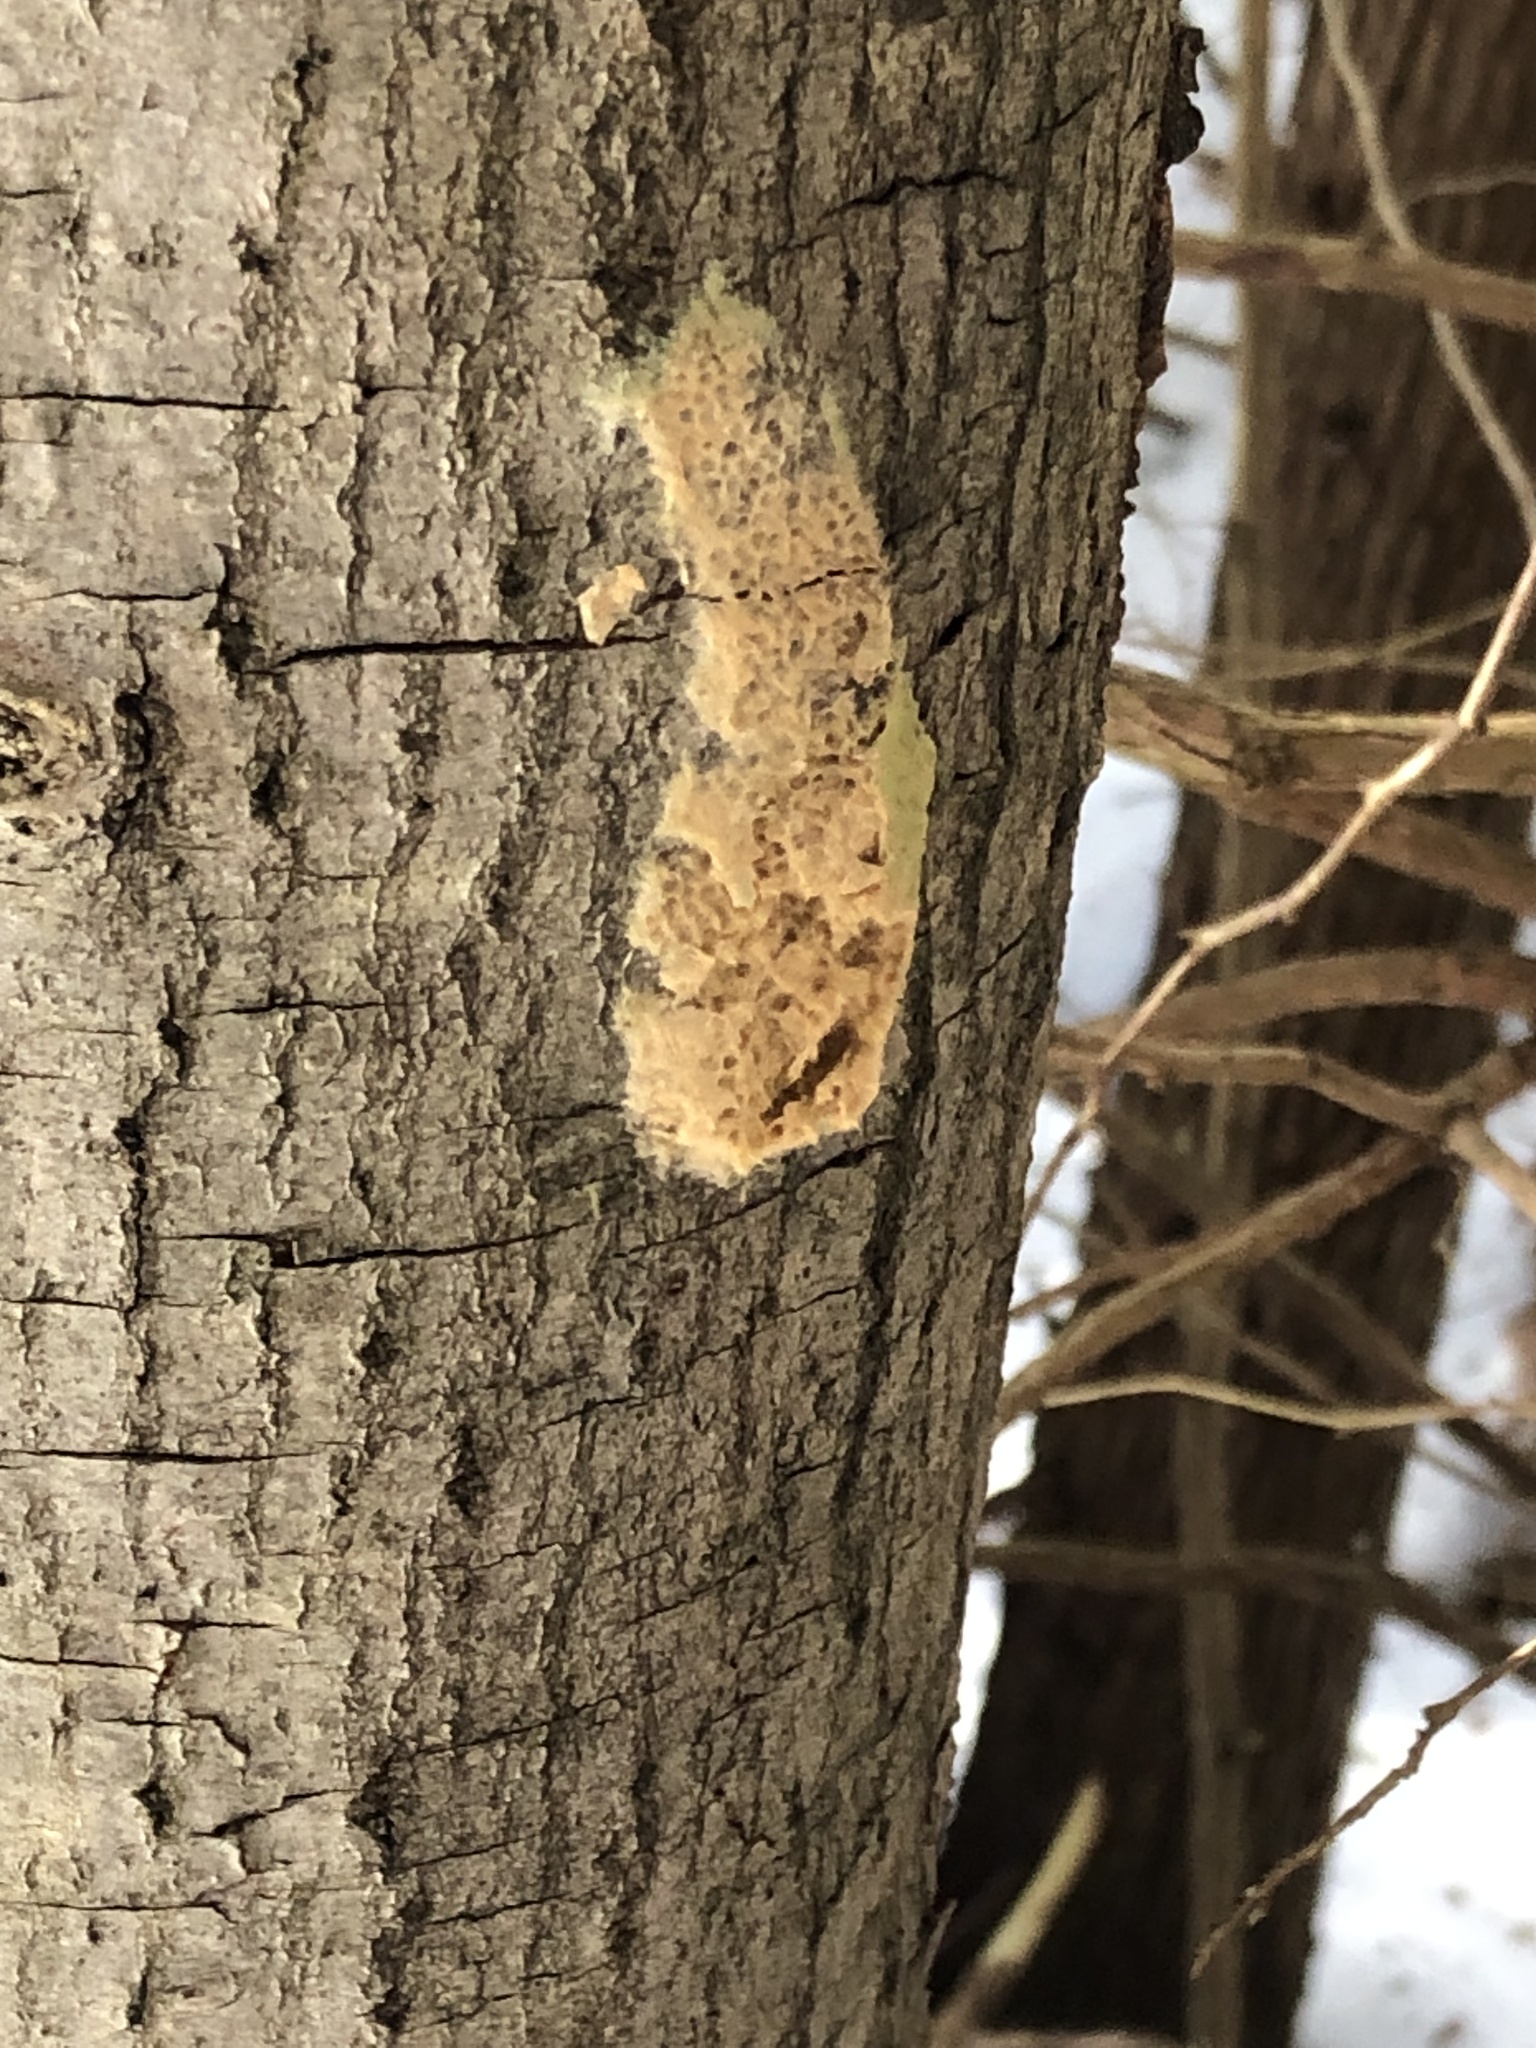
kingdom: Animalia
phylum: Arthropoda
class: Insecta
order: Lepidoptera
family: Erebidae
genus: Lymantria
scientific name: Lymantria dispar
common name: Gypsy moth
